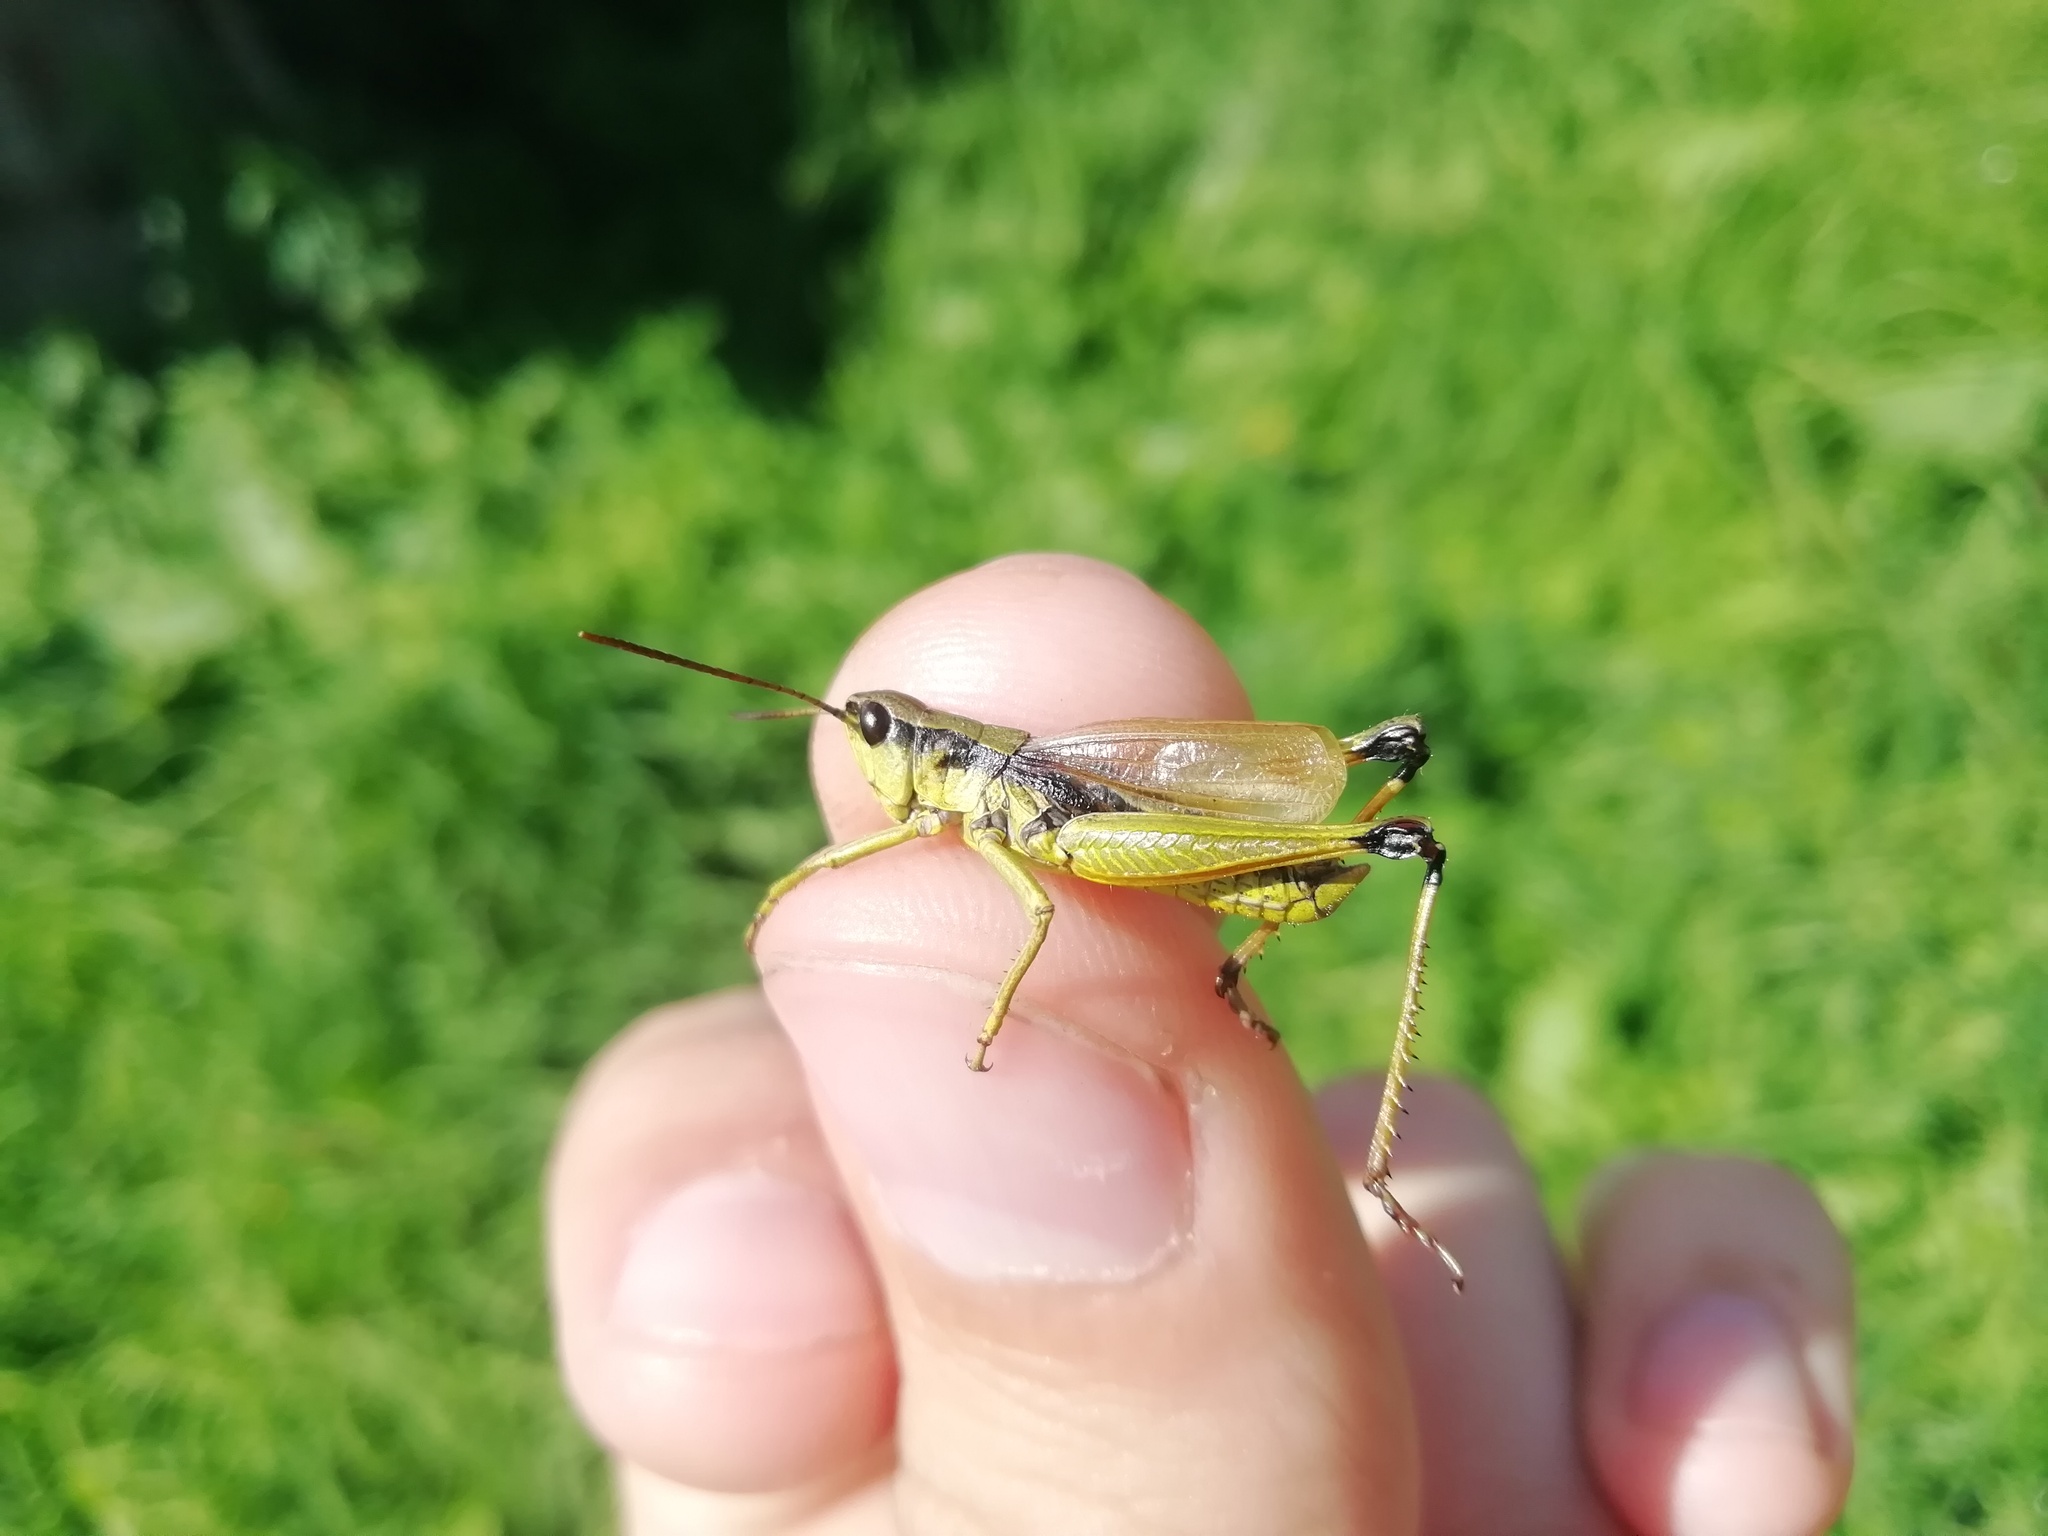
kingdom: Animalia
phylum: Arthropoda
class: Insecta
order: Orthoptera
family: Acrididae
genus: Podismopsis
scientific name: Podismopsis poppiusi
